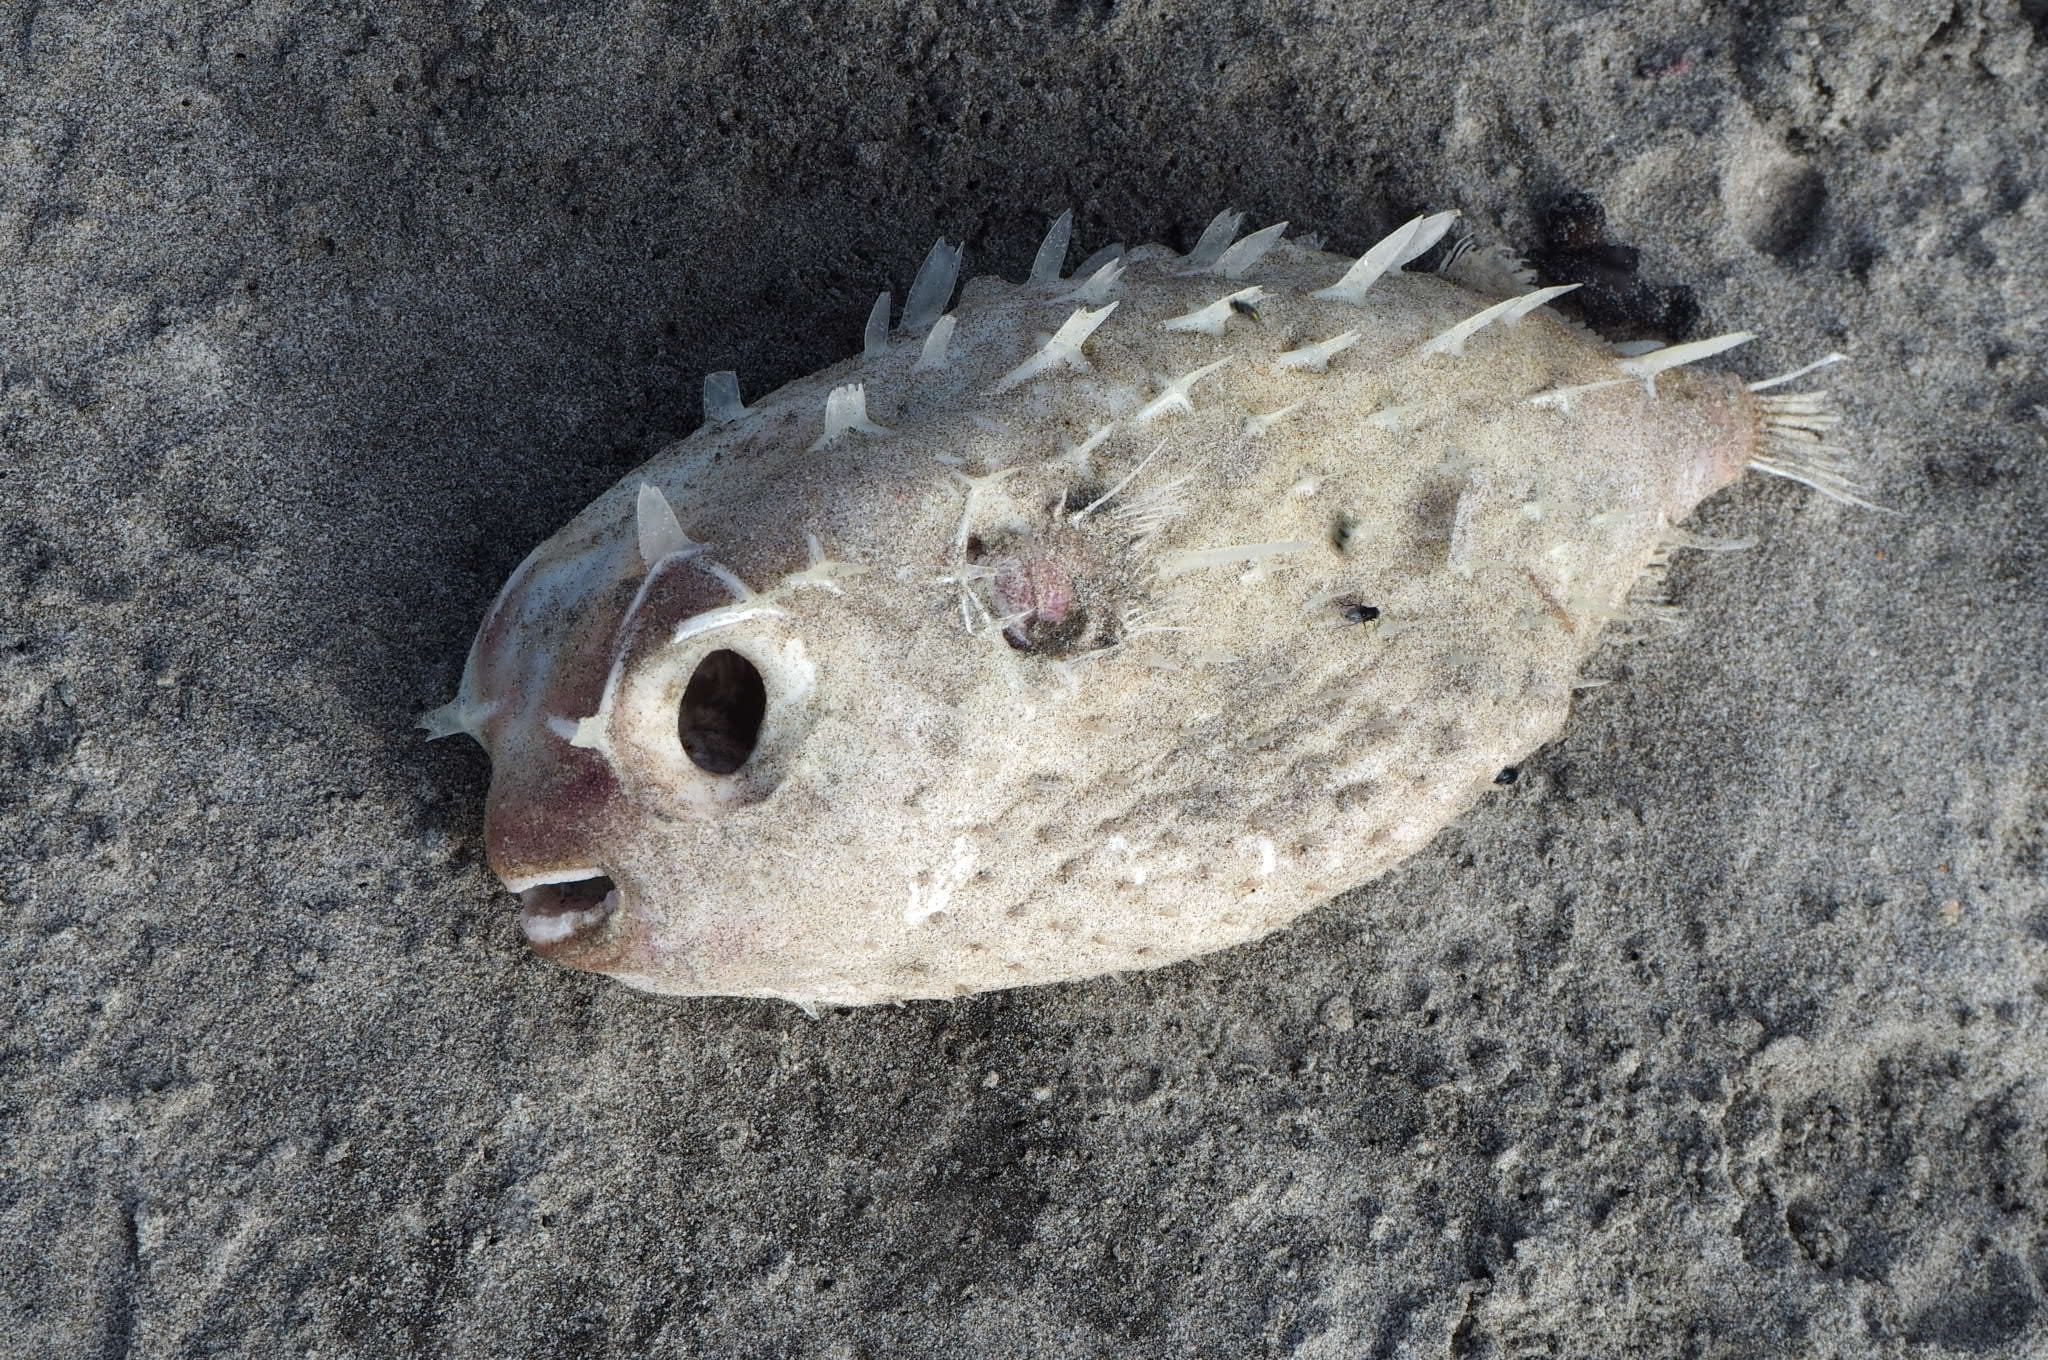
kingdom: Animalia
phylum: Chordata
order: Tetraodontiformes
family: Diodontidae
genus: Allomycterus
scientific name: Allomycterus pilatus
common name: No common name
